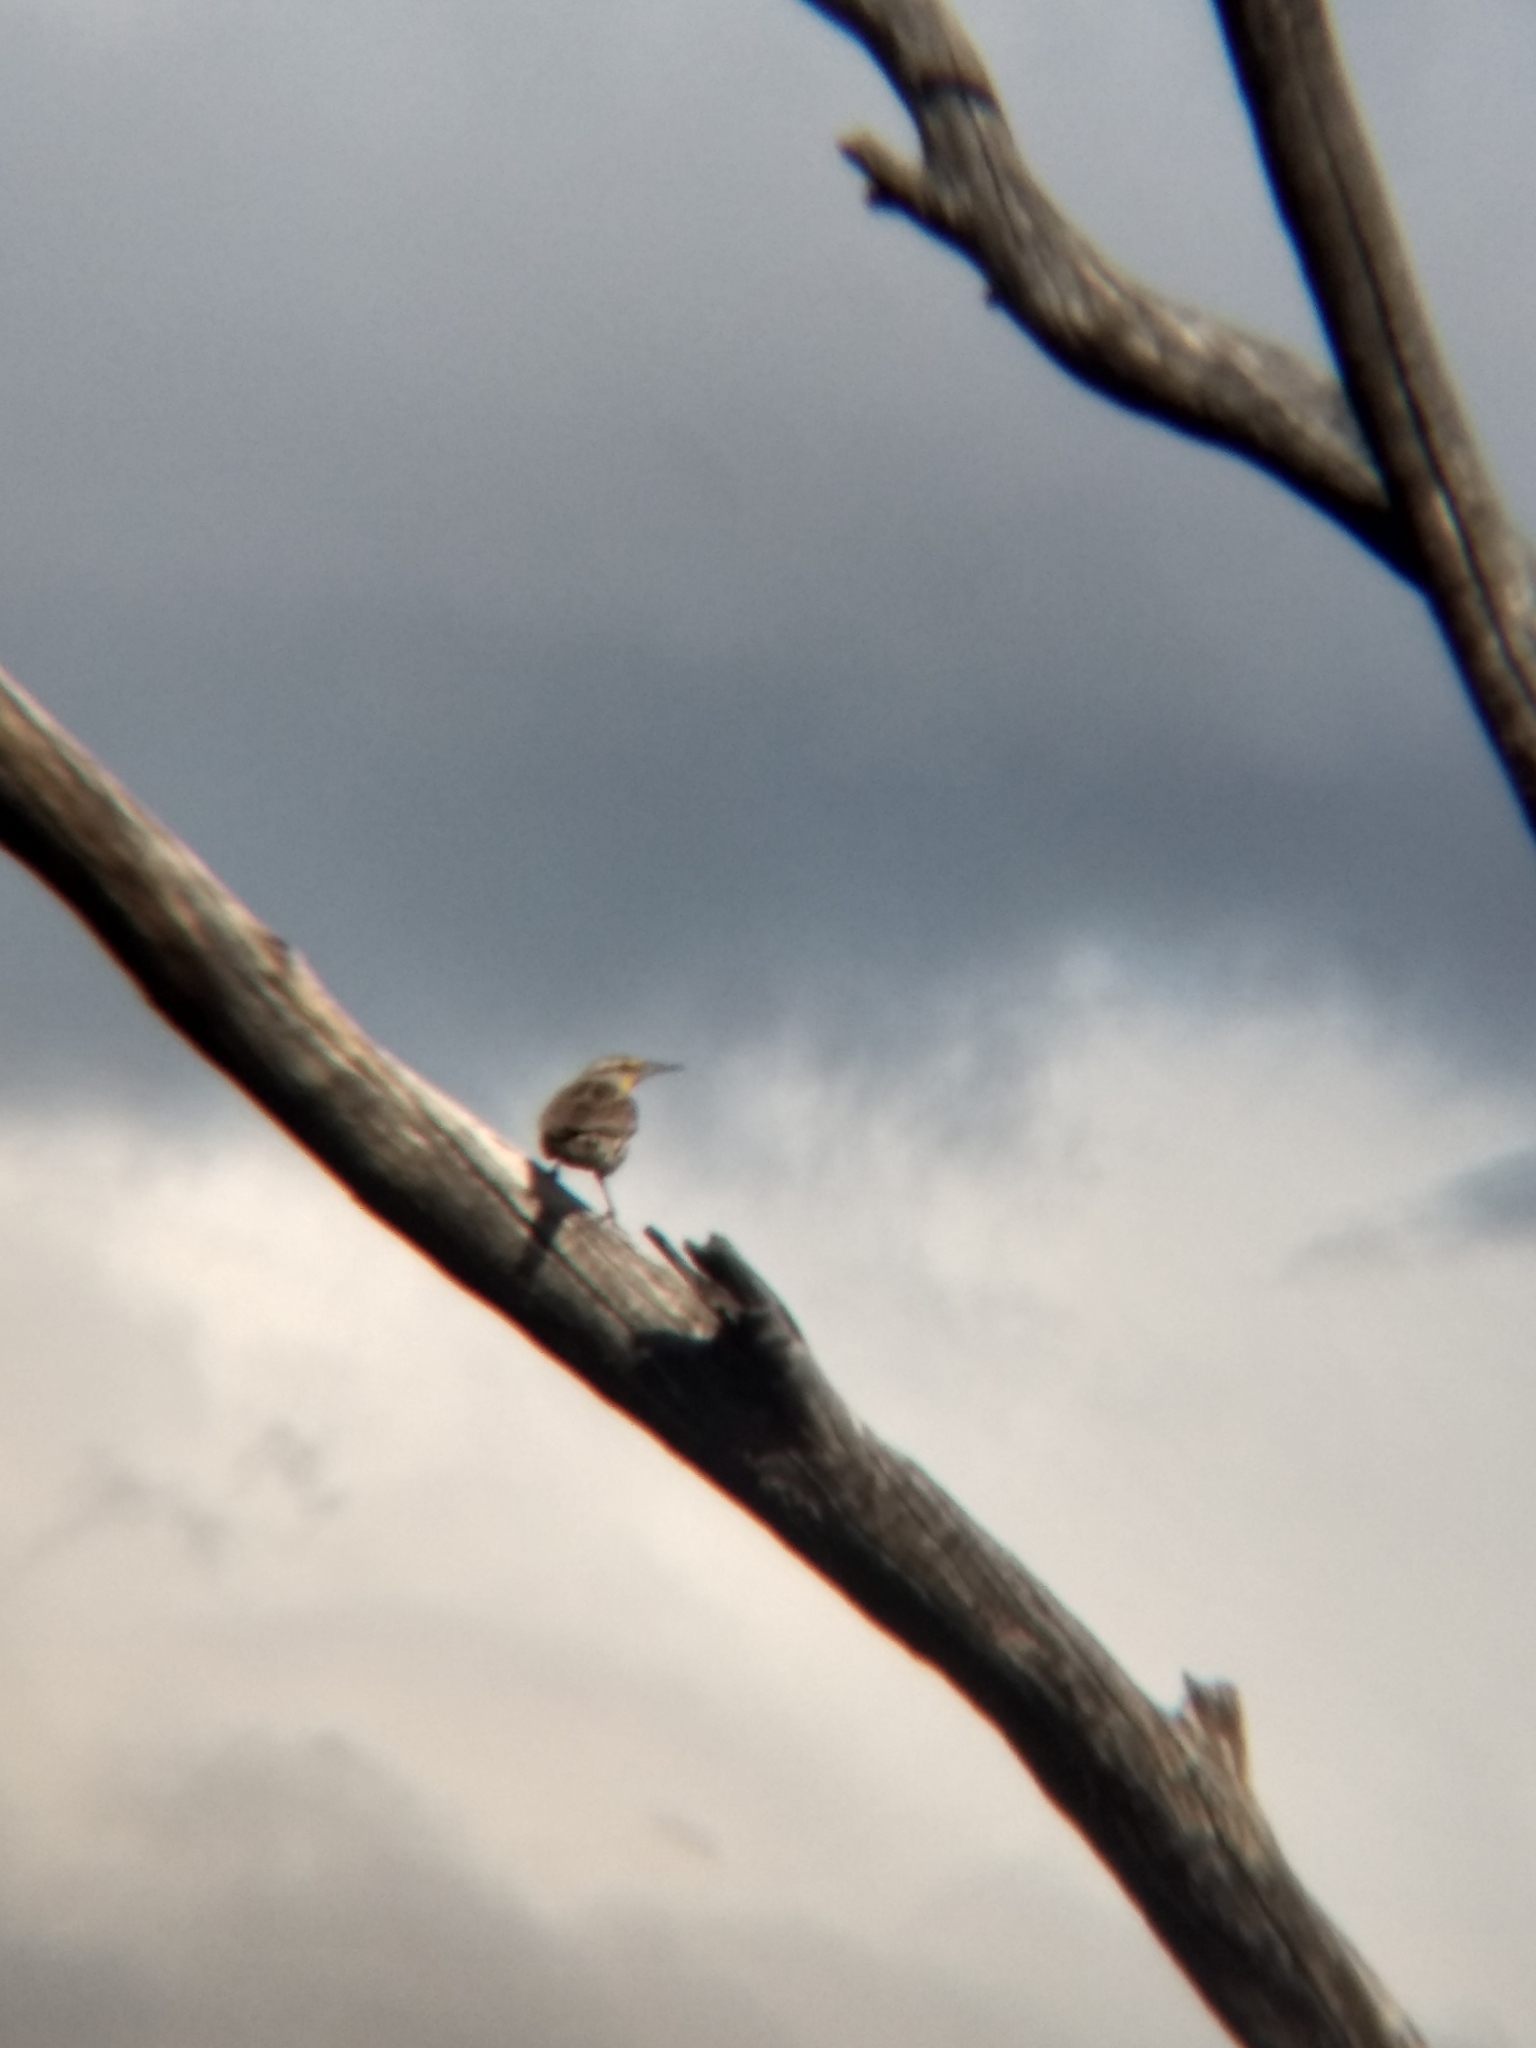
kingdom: Animalia
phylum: Chordata
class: Aves
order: Passeriformes
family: Icteridae
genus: Sturnella
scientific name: Sturnella neglecta
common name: Western meadowlark
